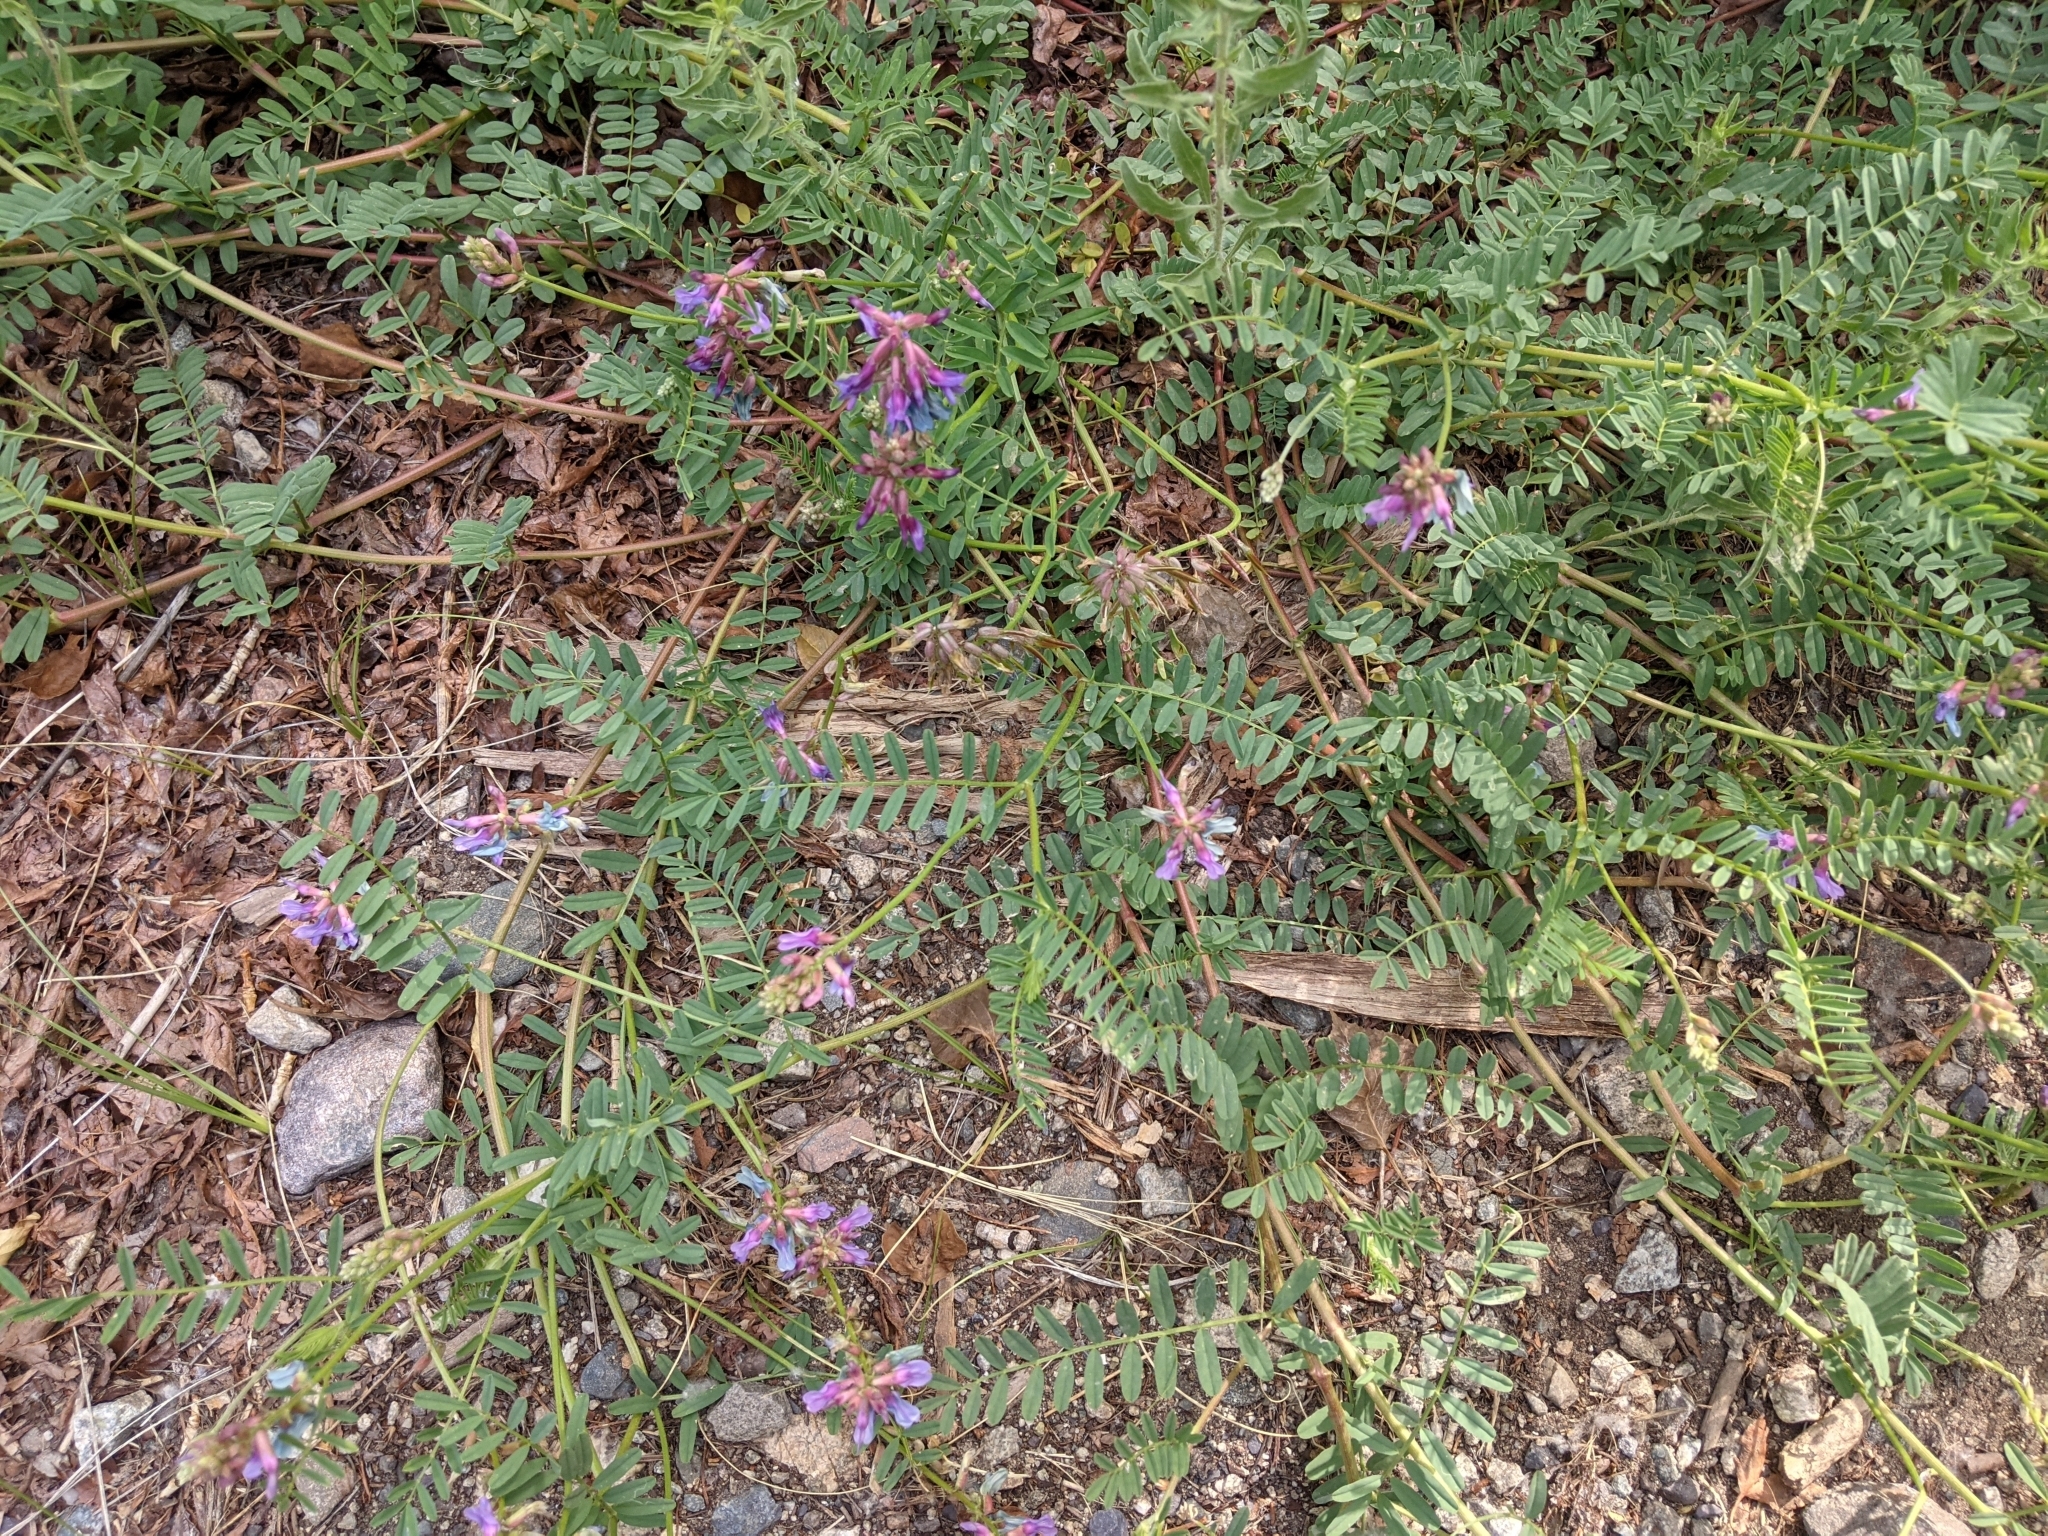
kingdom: Plantae
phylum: Tracheophyta
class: Magnoliopsida
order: Fabales
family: Fabaceae
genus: Astragalus
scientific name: Astragalus hallii
